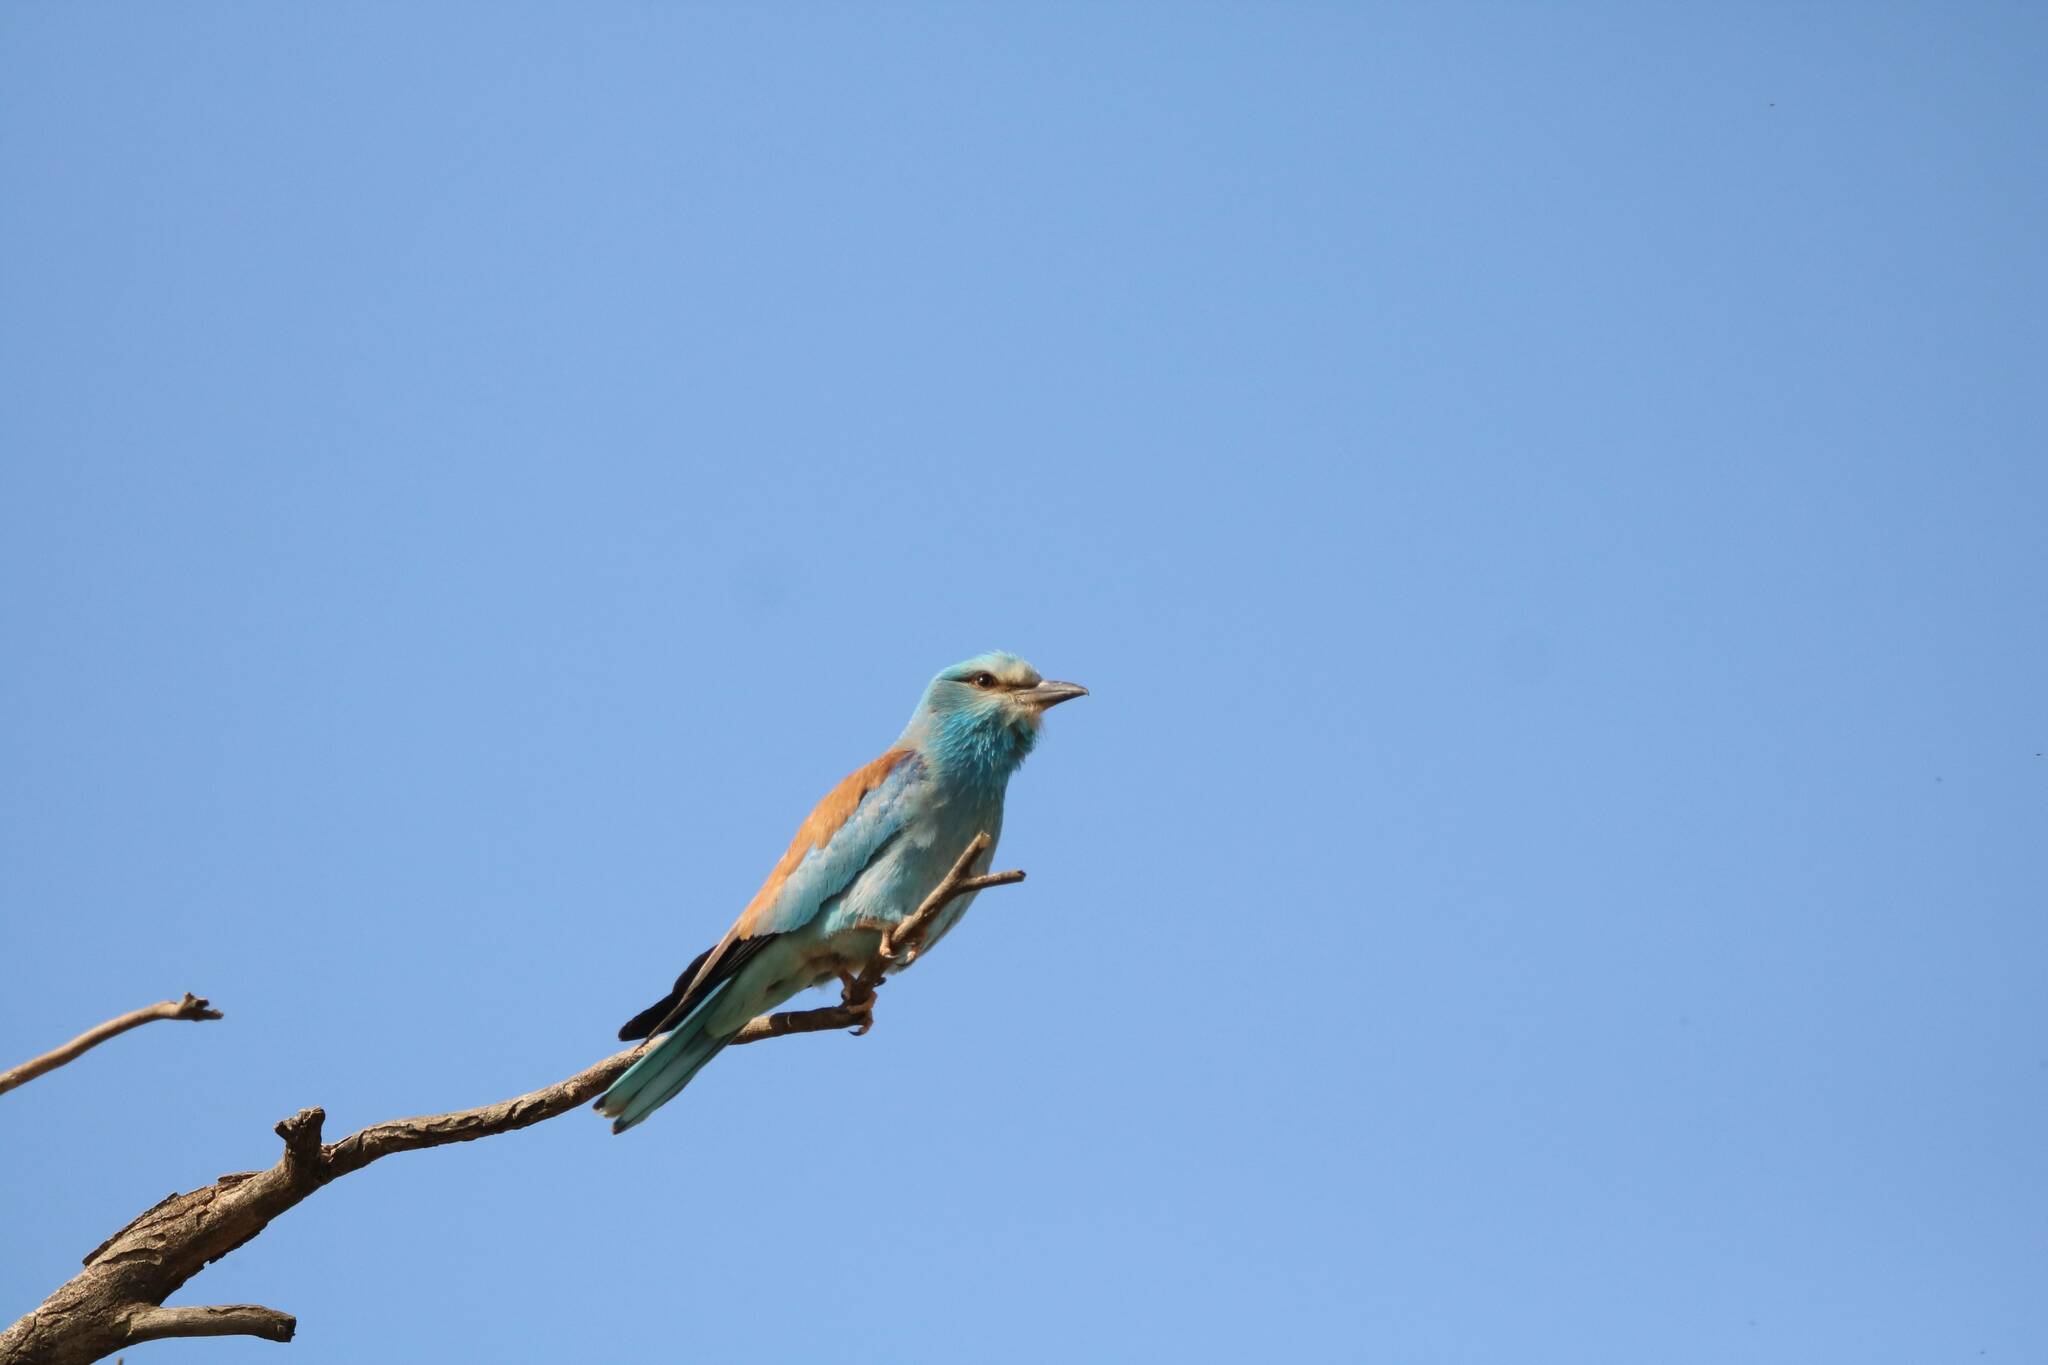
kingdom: Animalia
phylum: Chordata
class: Aves
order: Coraciiformes
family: Coraciidae
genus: Coracias
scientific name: Coracias garrulus
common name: European roller
